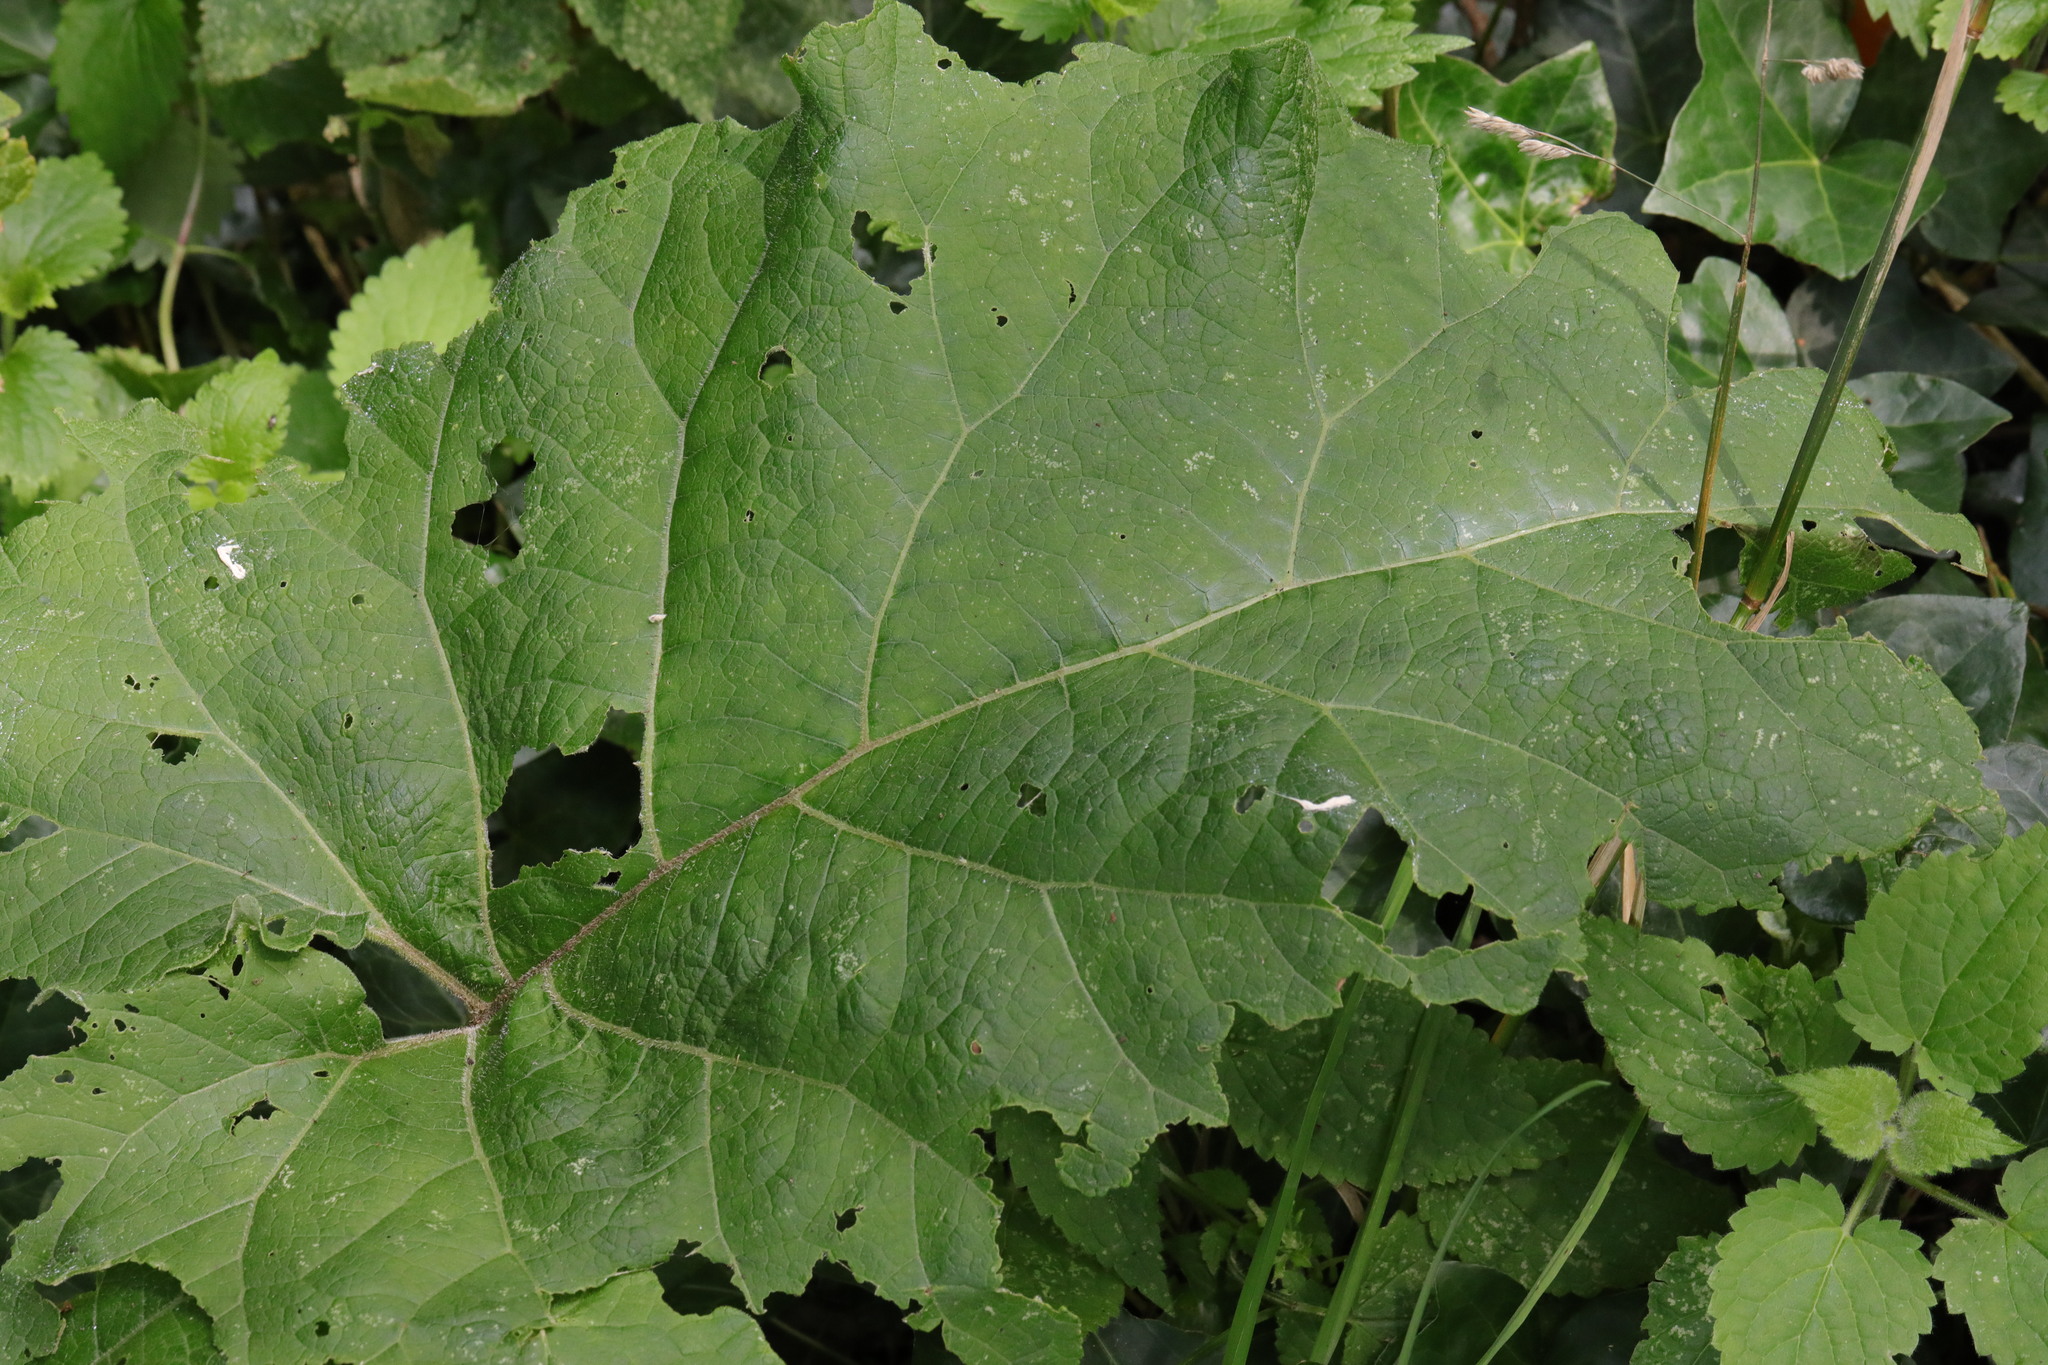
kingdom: Plantae
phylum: Tracheophyta
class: Magnoliopsida
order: Asterales
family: Asteraceae
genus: Arctium
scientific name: Arctium minus
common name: Lesser burdock
